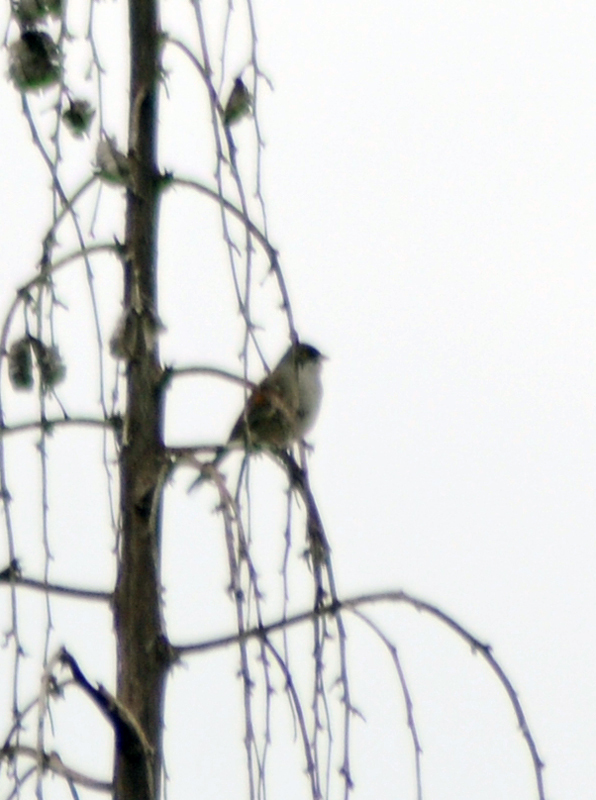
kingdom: Animalia
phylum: Chordata
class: Aves
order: Passeriformes
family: Passerellidae
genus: Junco
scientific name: Junco phaeonotus
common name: Yellow-eyed junco
